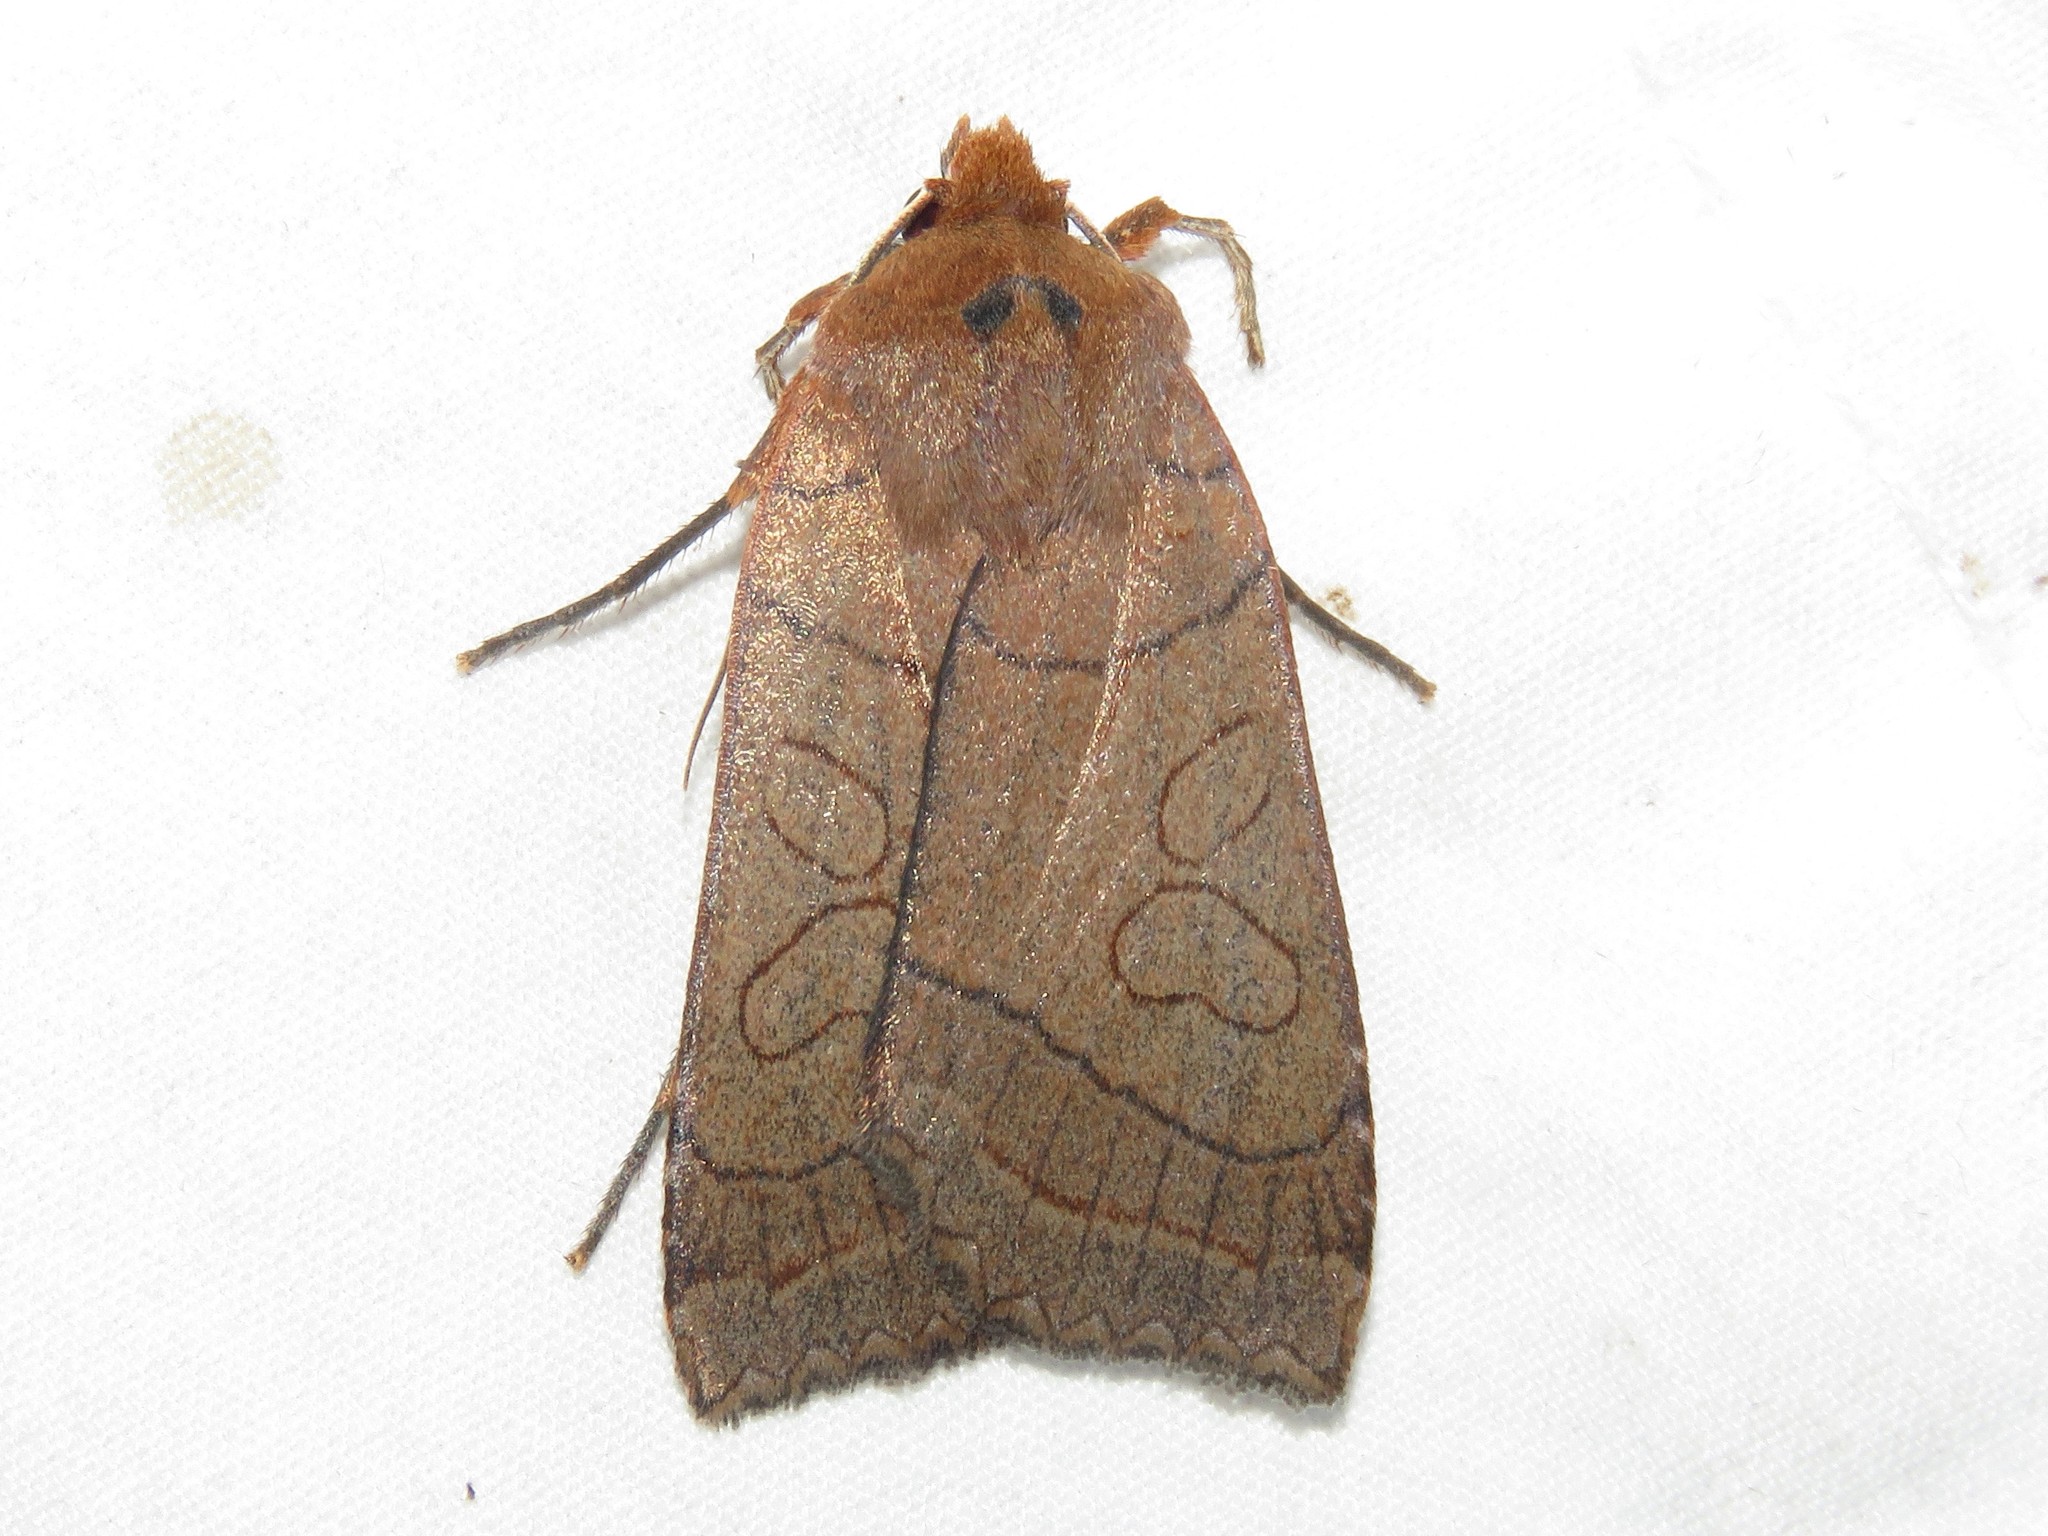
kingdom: Animalia
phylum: Arthropoda
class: Insecta
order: Lepidoptera
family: Noctuidae
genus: Metaxaglaea
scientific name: Metaxaglaea inulta
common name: Unsated sallow
